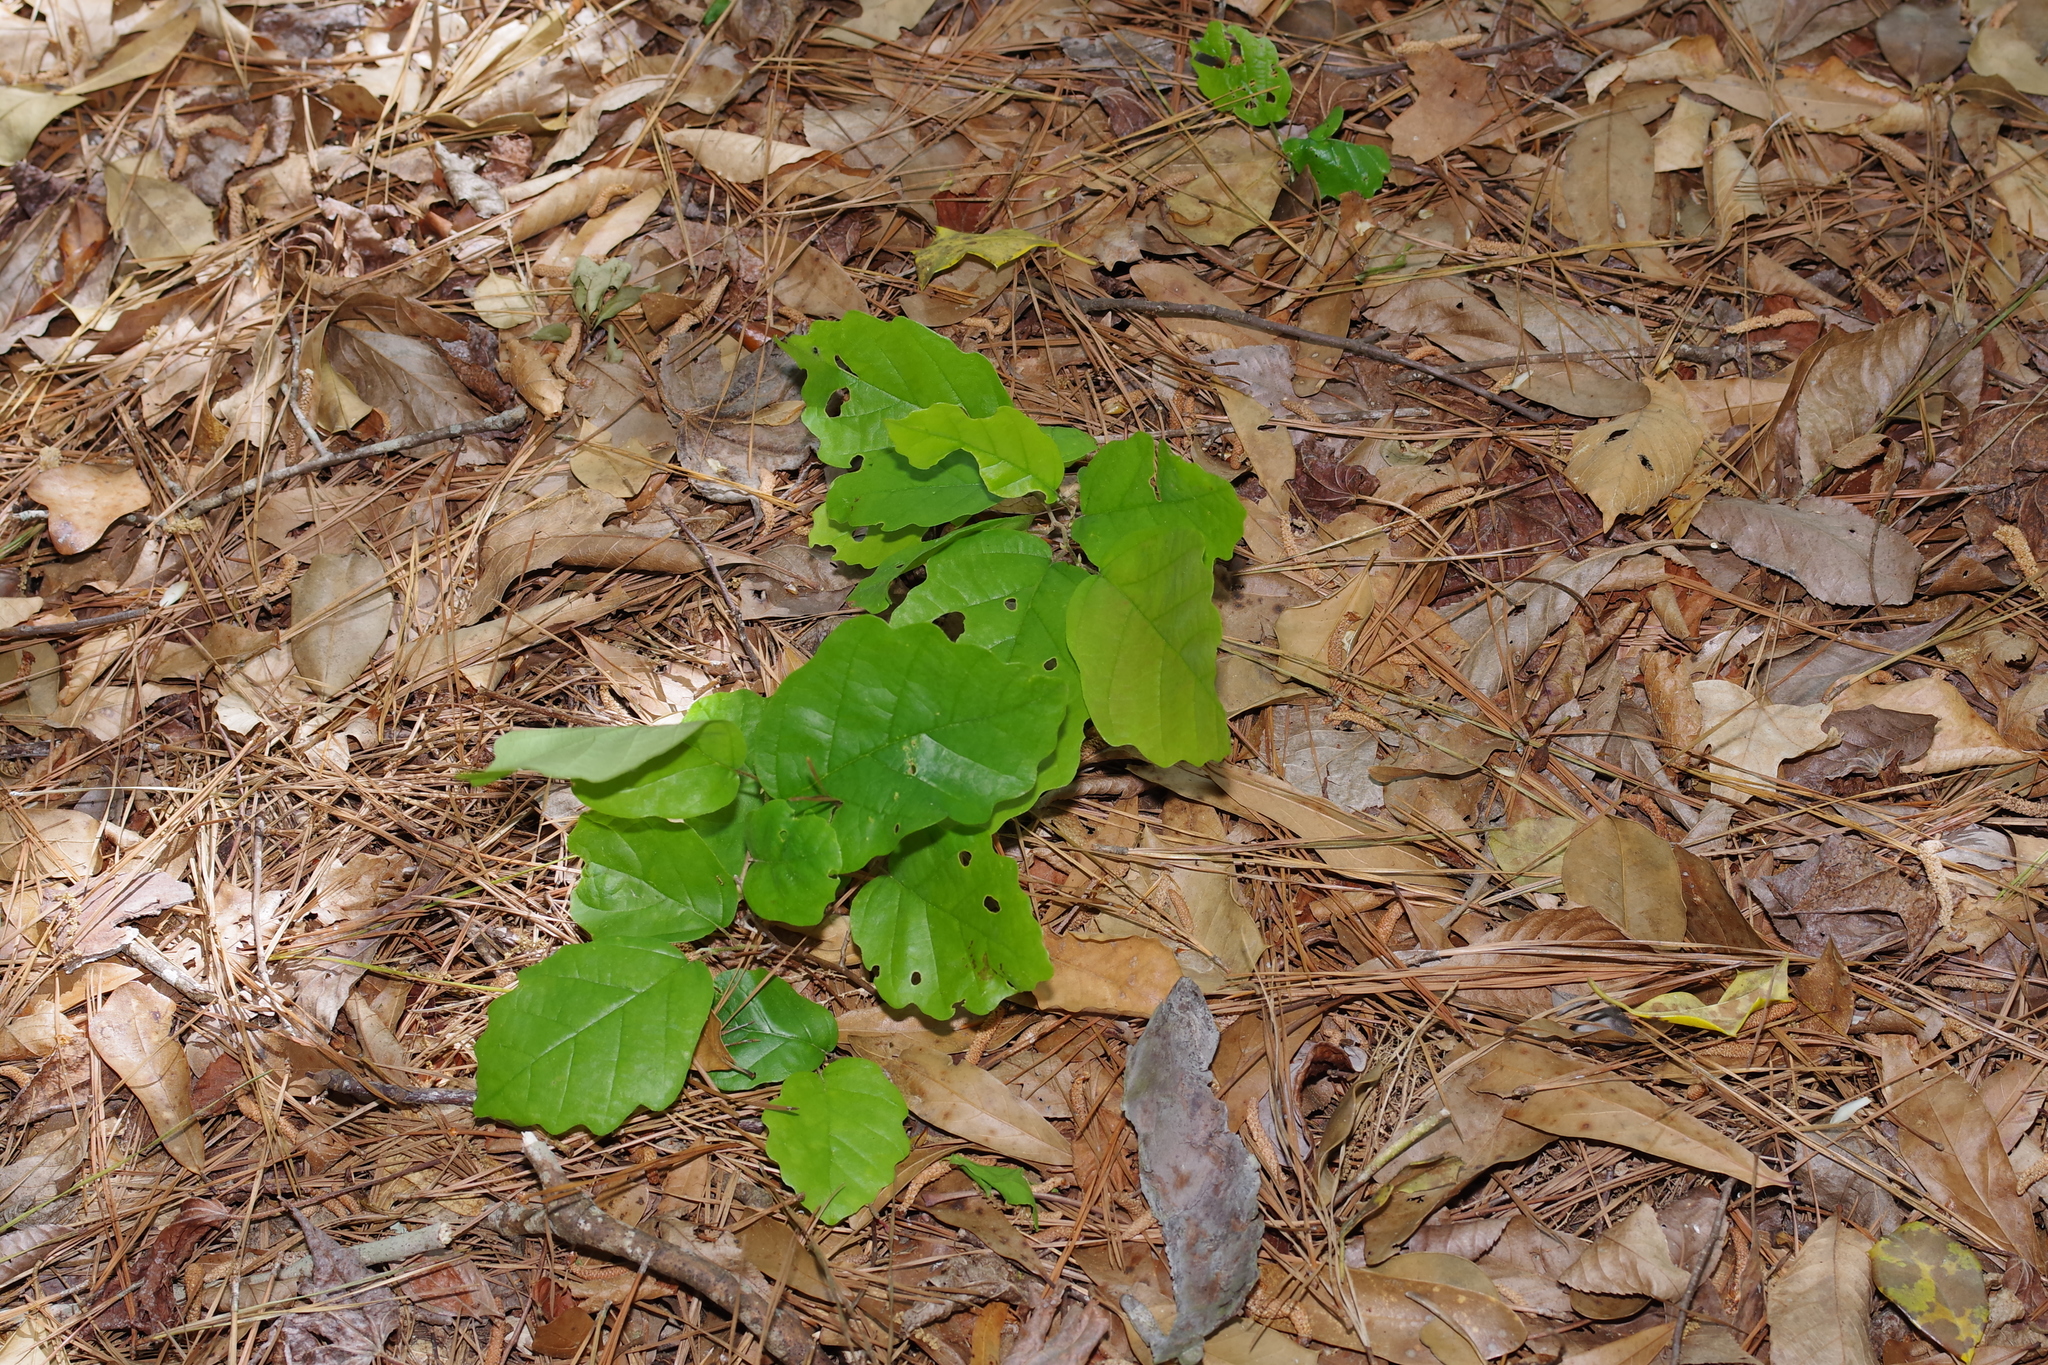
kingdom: Plantae
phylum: Tracheophyta
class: Magnoliopsida
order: Saxifragales
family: Hamamelidaceae
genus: Hamamelis
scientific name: Hamamelis virginiana
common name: Witch-hazel
